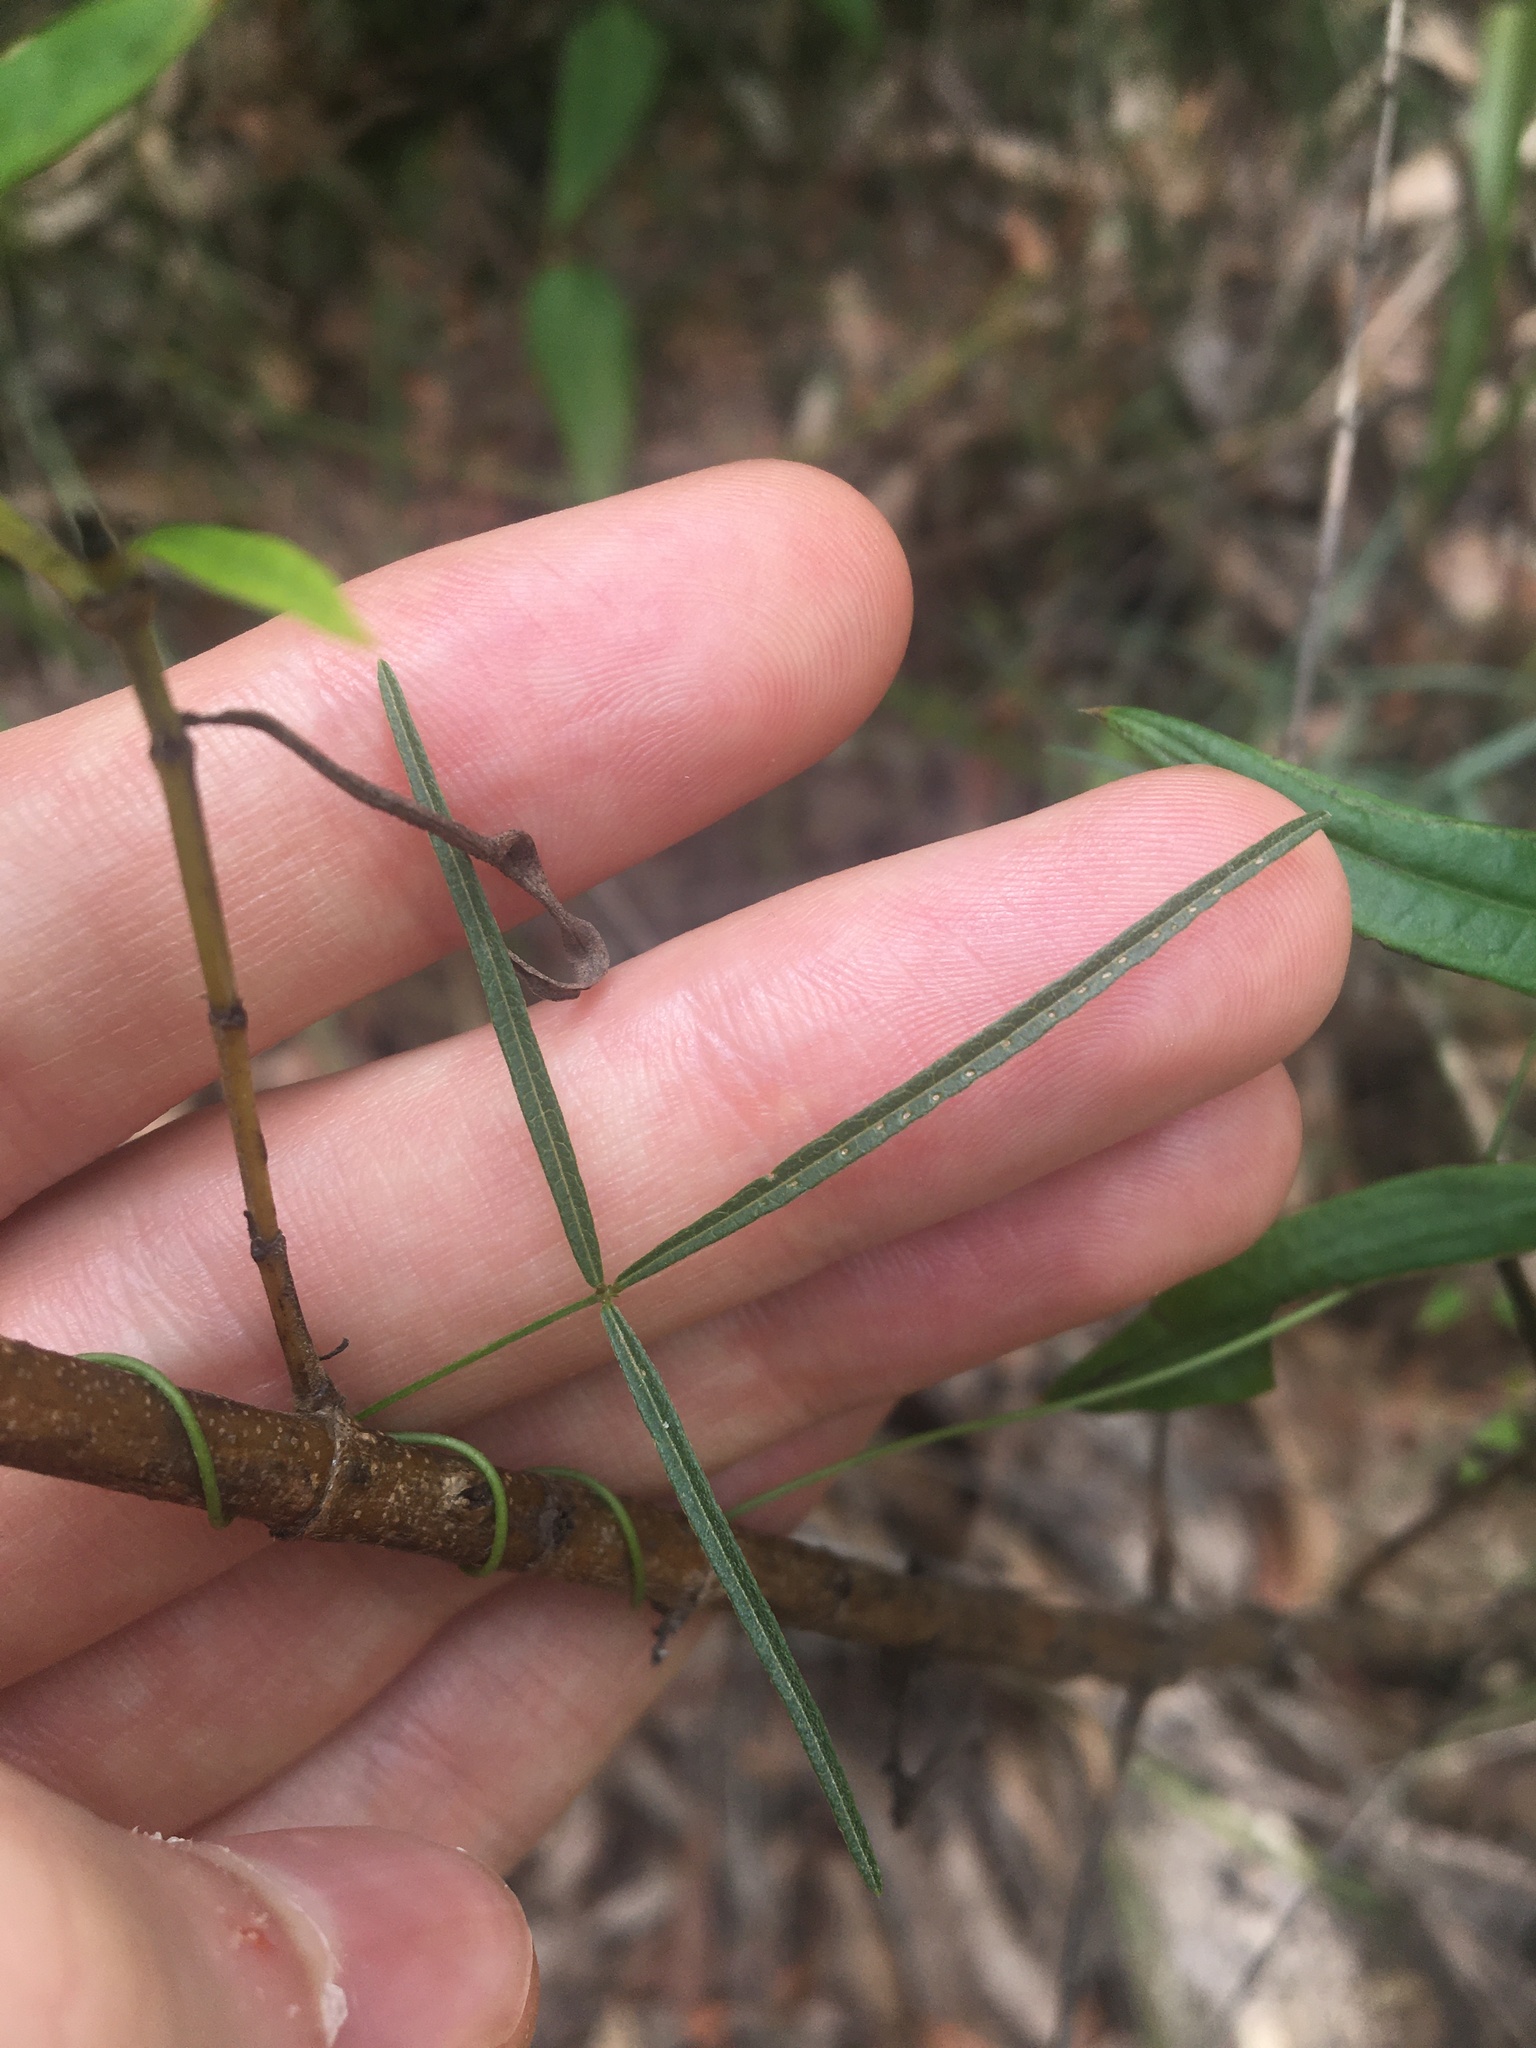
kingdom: Plantae
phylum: Tracheophyta
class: Magnoliopsida
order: Fabales
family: Fabaceae
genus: Glycine
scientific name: Glycine clandestina
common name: Twining glycine
